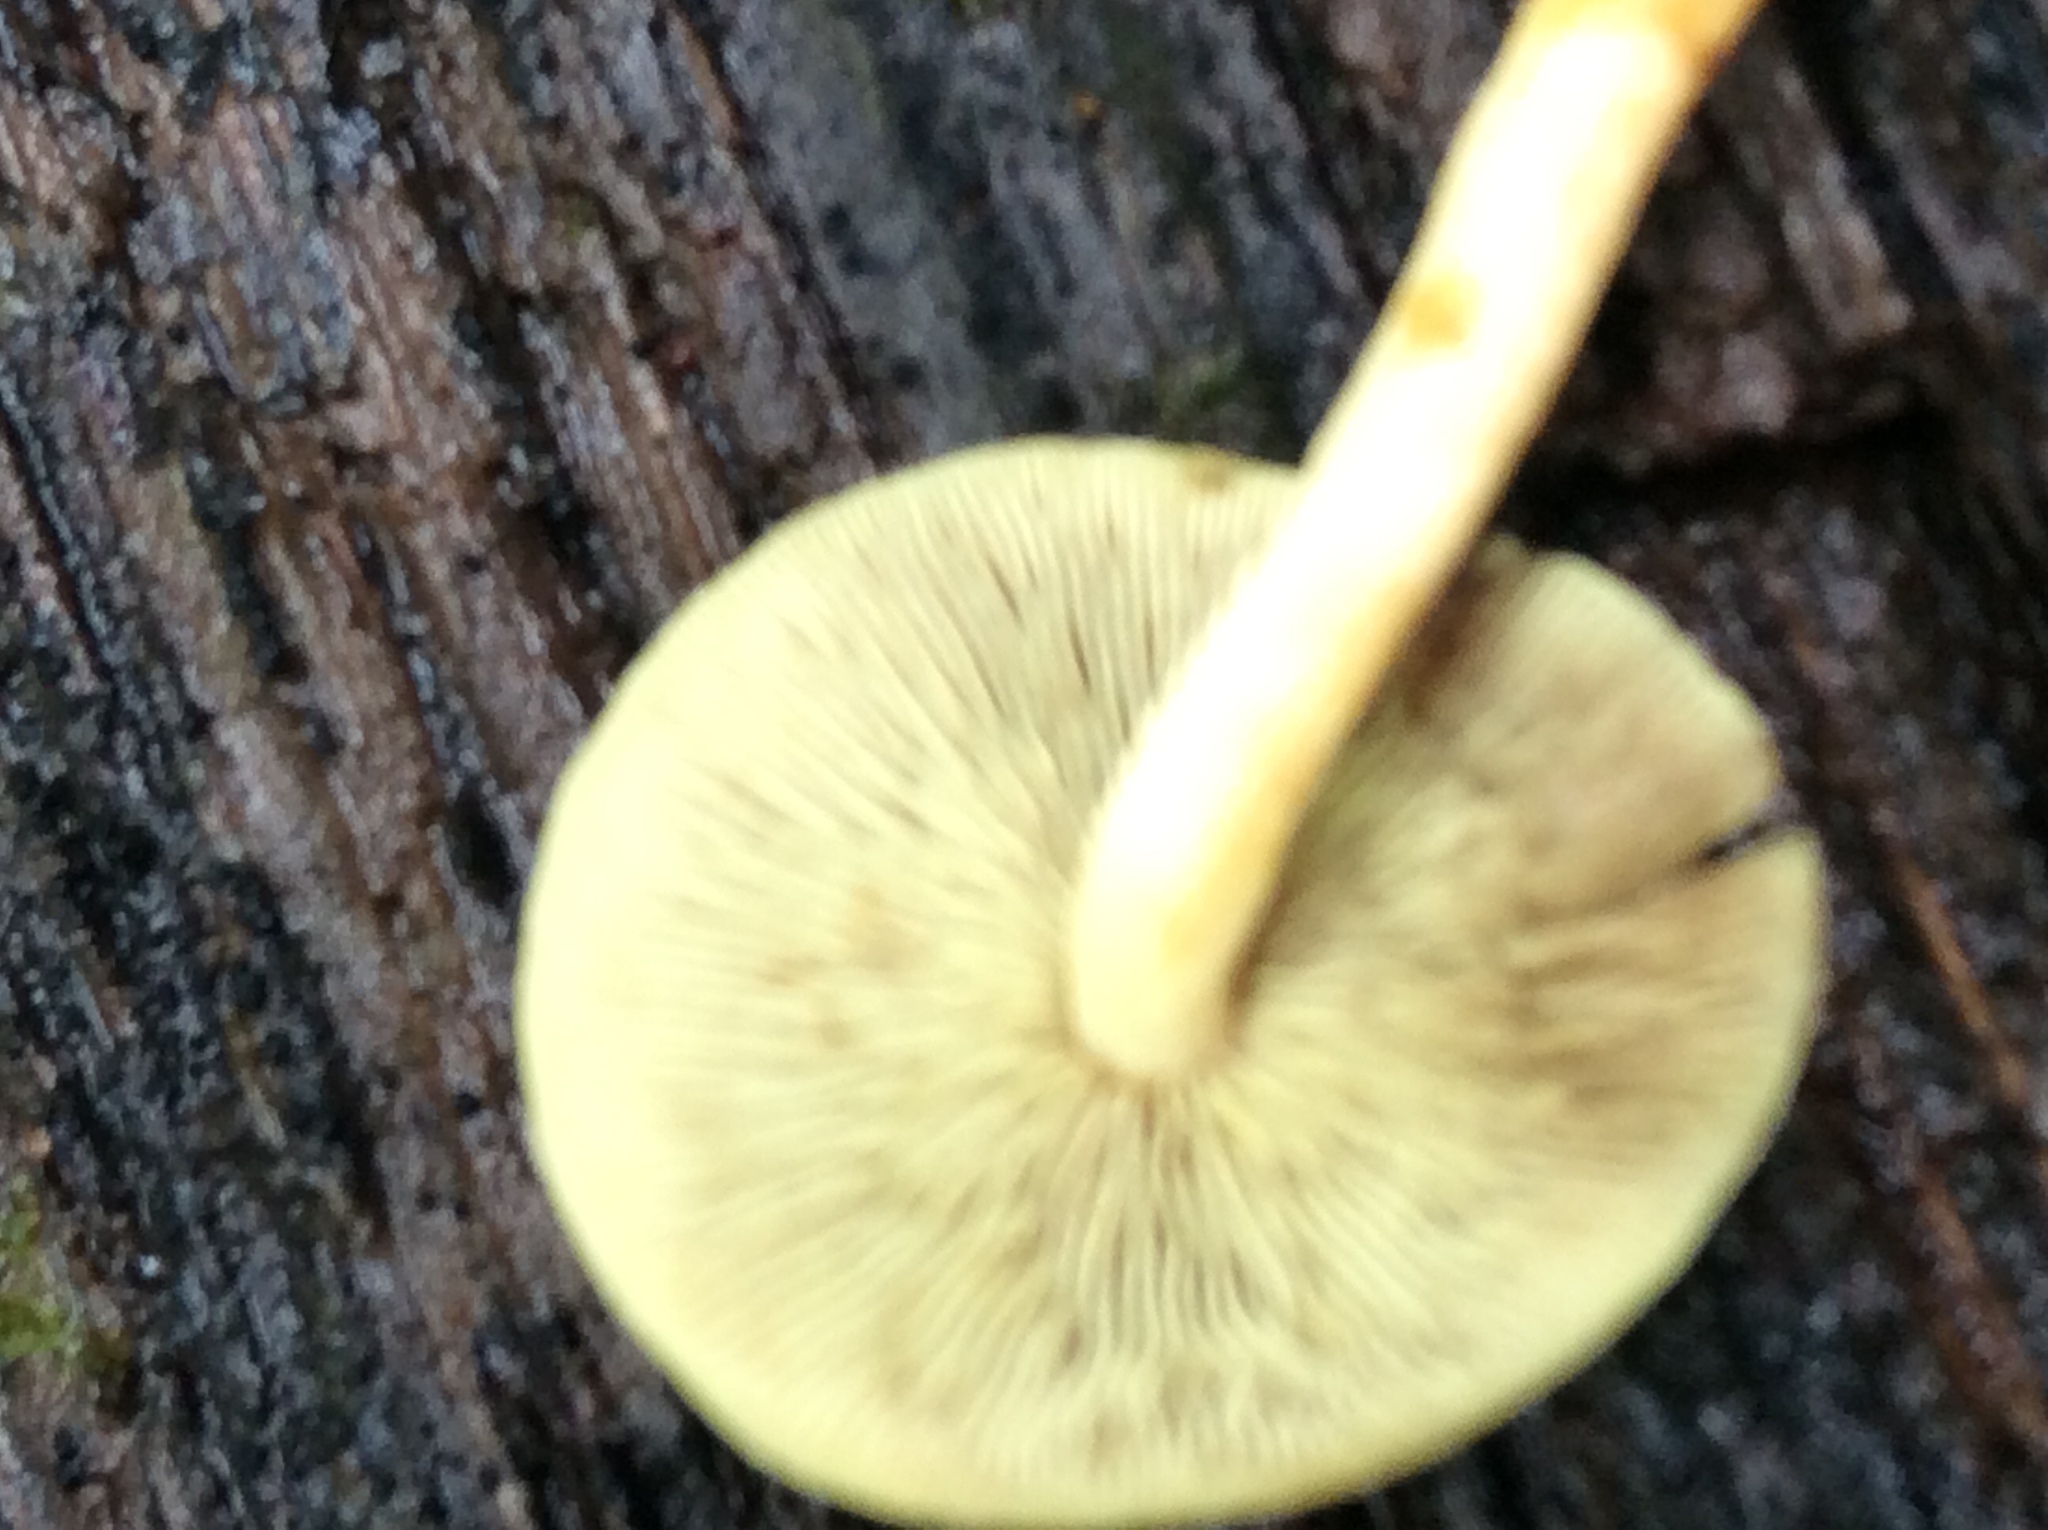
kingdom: Fungi
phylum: Basidiomycota
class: Agaricomycetes
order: Agaricales
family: Strophariaceae
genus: Hypholoma
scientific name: Hypholoma fasciculare
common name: Sulphur tuft
